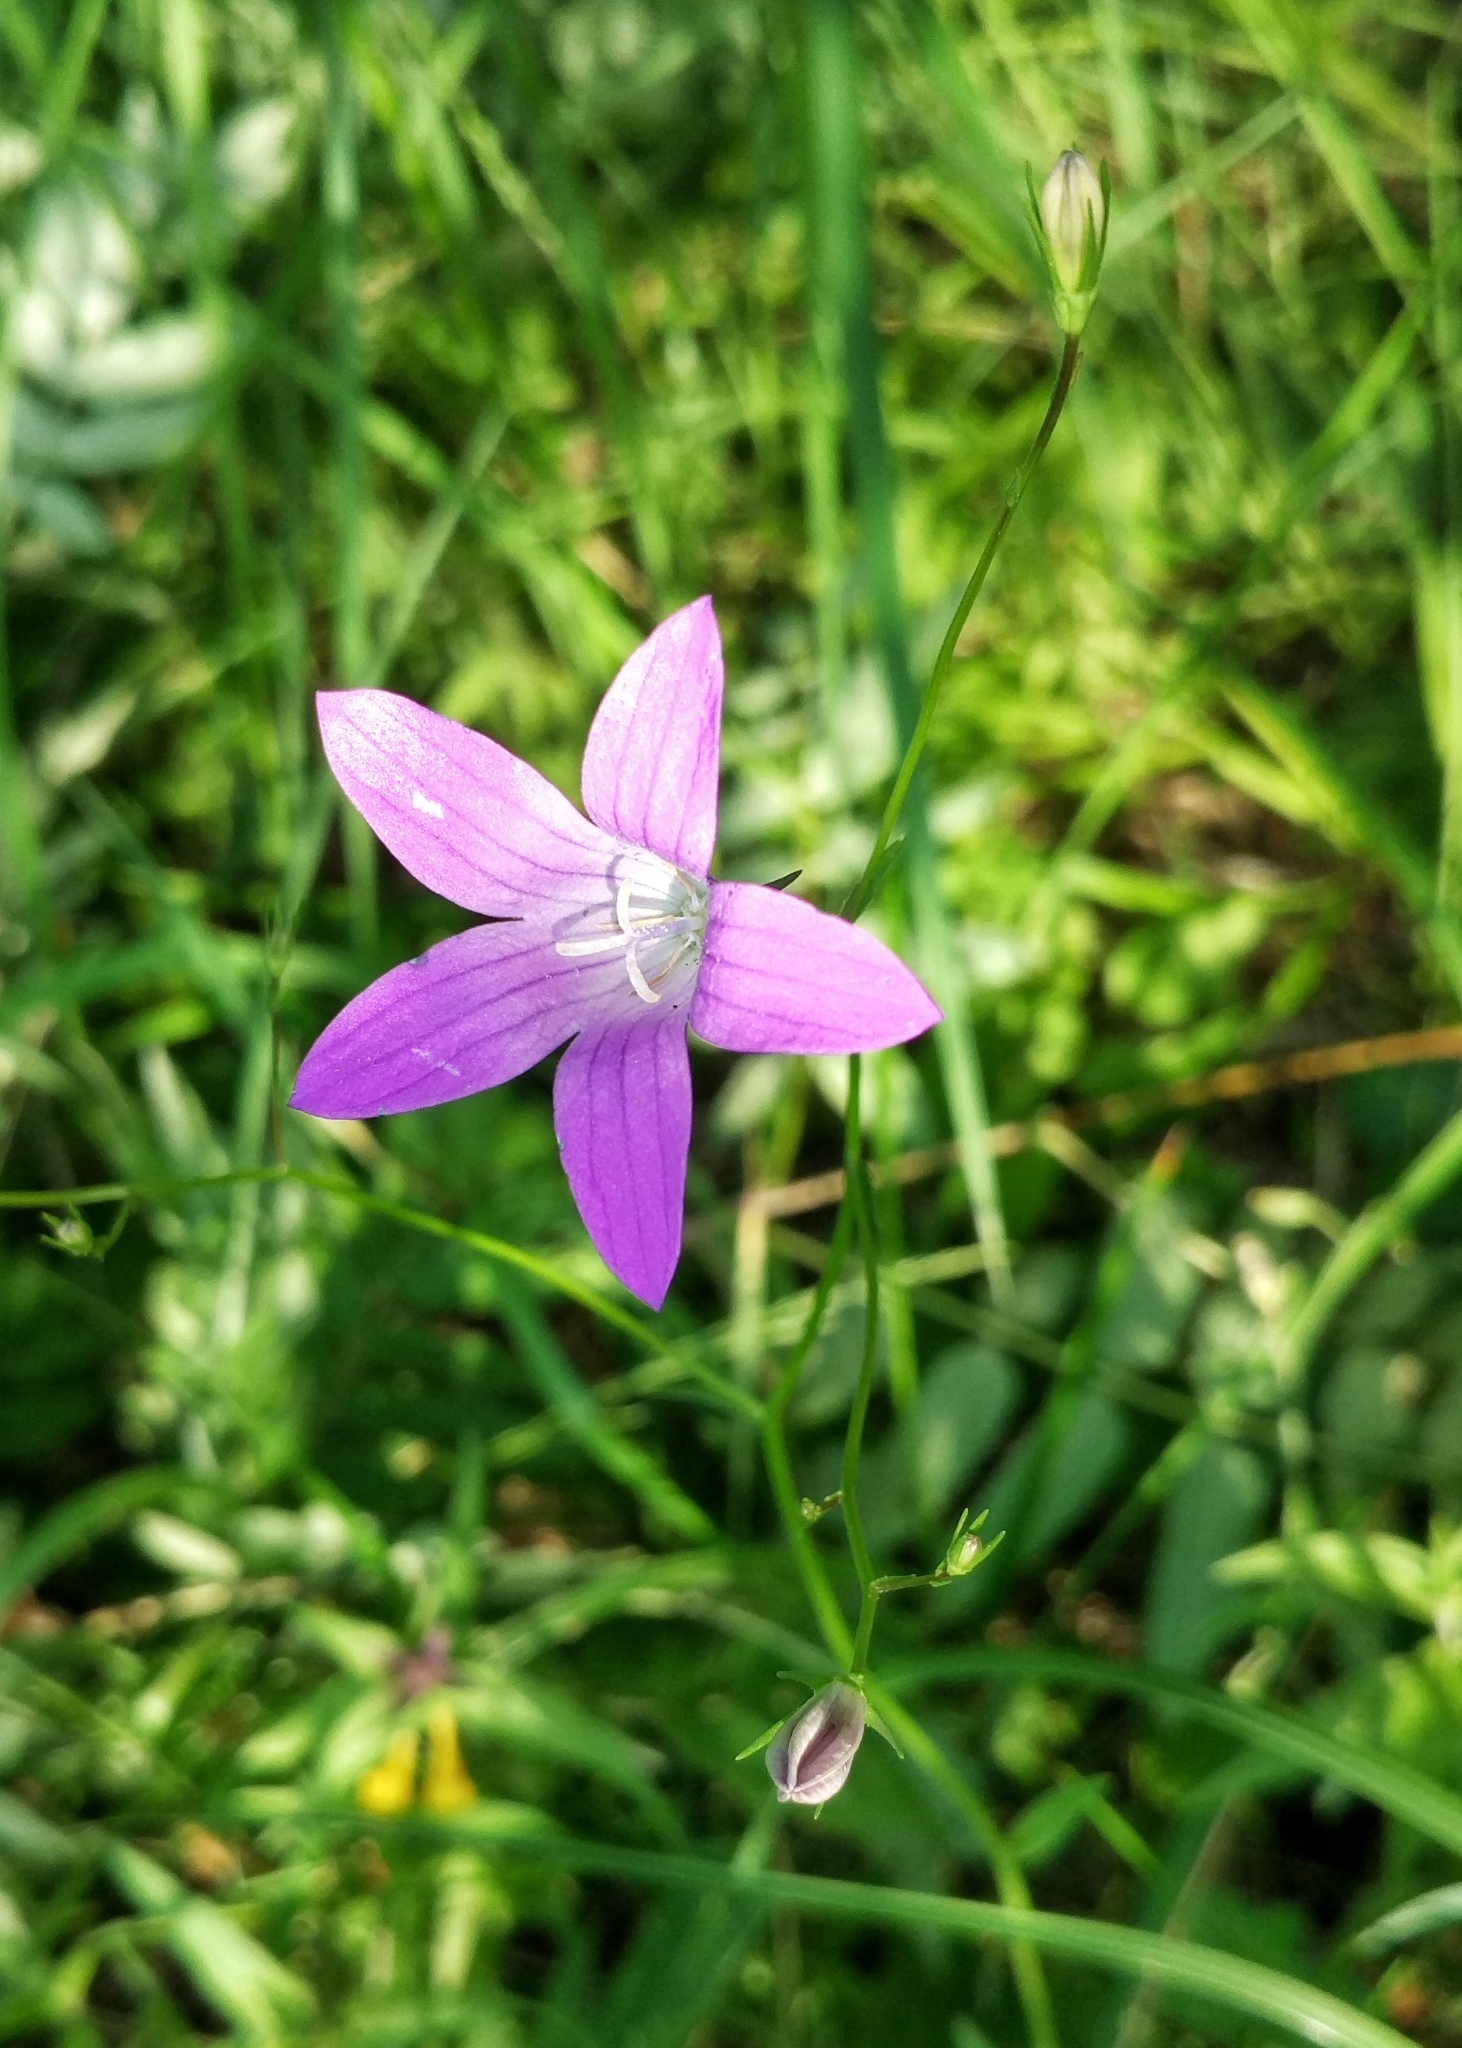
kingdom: Plantae
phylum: Tracheophyta
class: Magnoliopsida
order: Asterales
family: Campanulaceae
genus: Campanula
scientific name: Campanula patula
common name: Spreading bellflower
